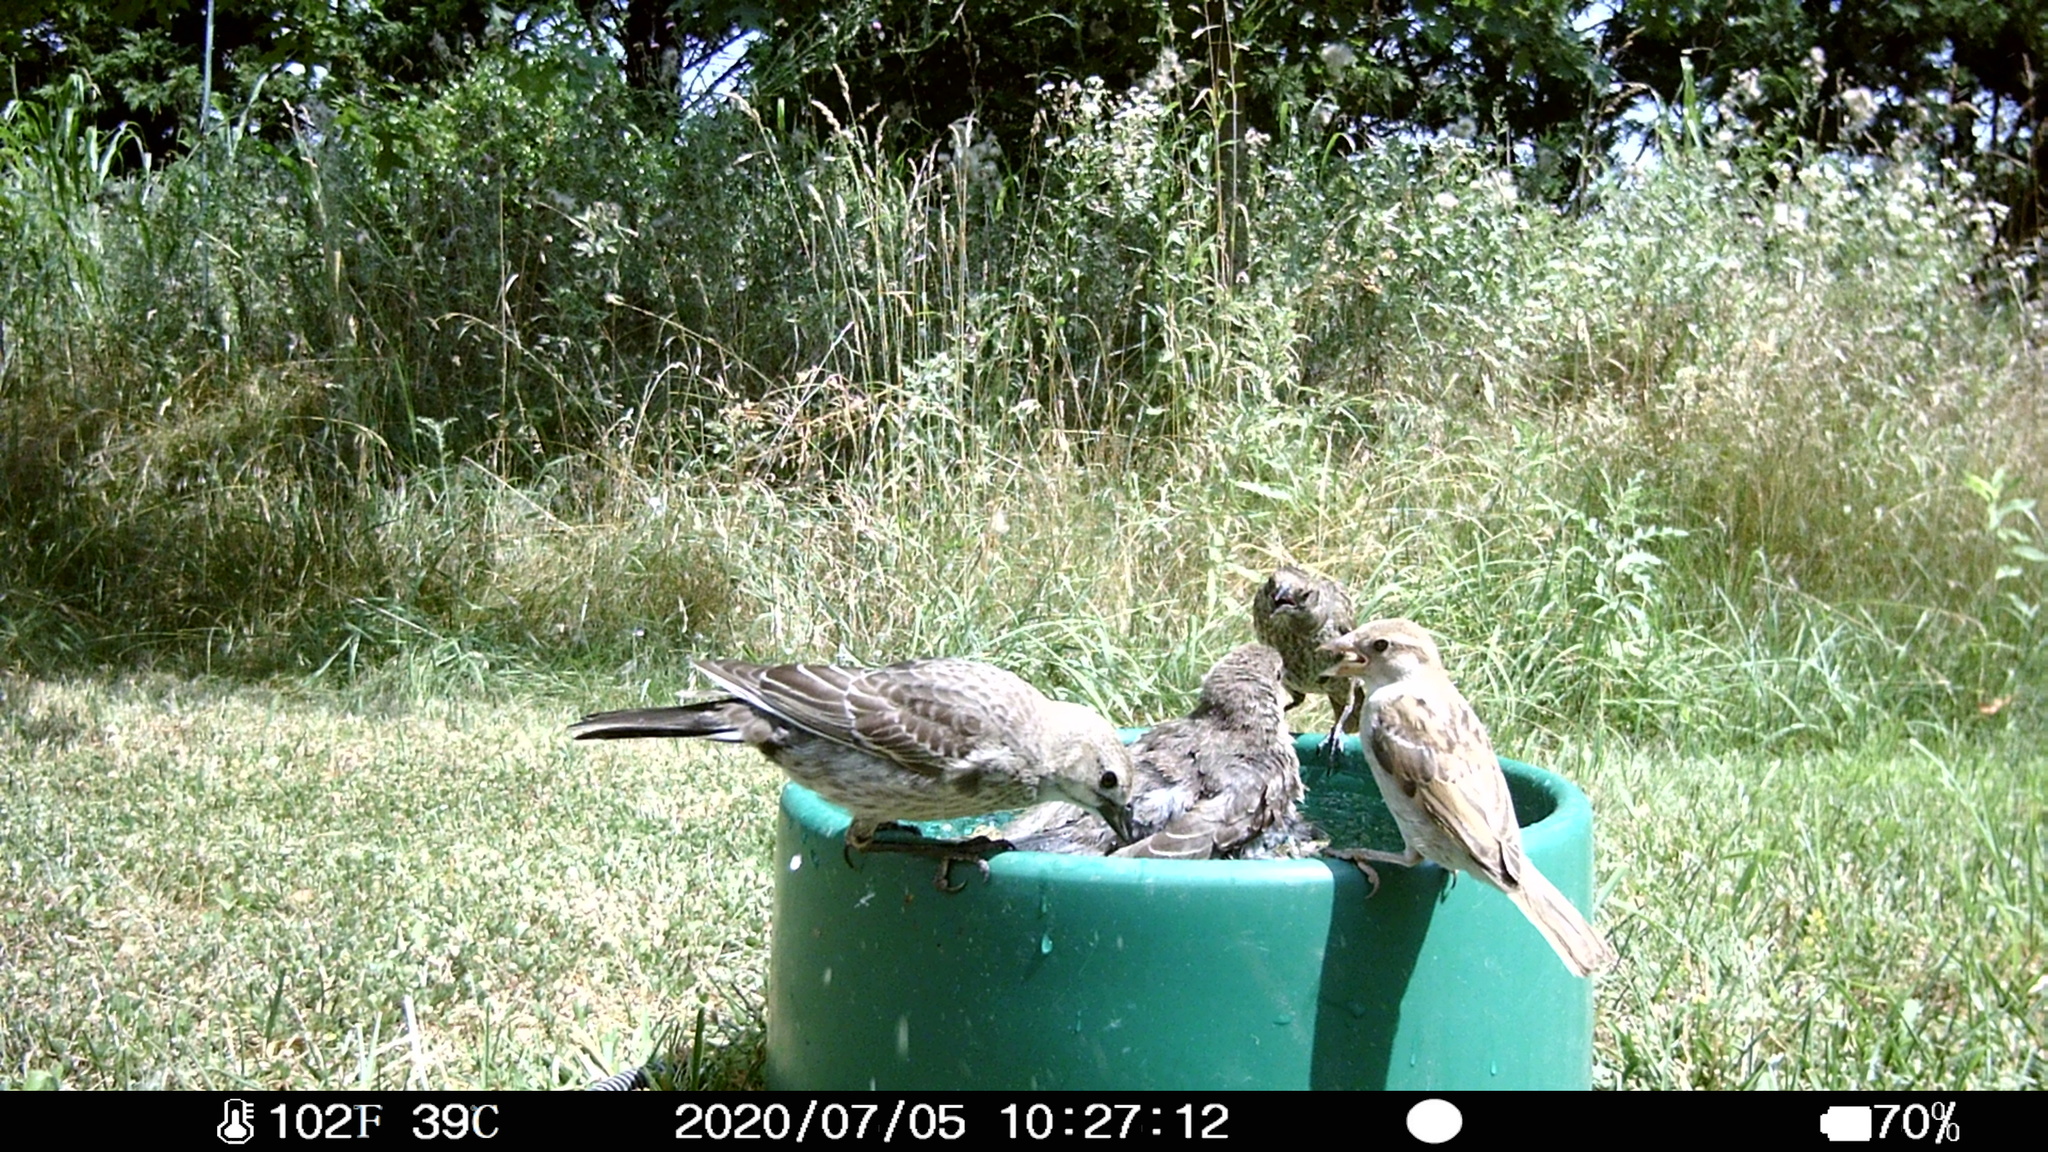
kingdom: Animalia
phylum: Chordata
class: Aves
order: Passeriformes
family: Icteridae
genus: Molothrus
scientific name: Molothrus ater
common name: Brown-headed cowbird
